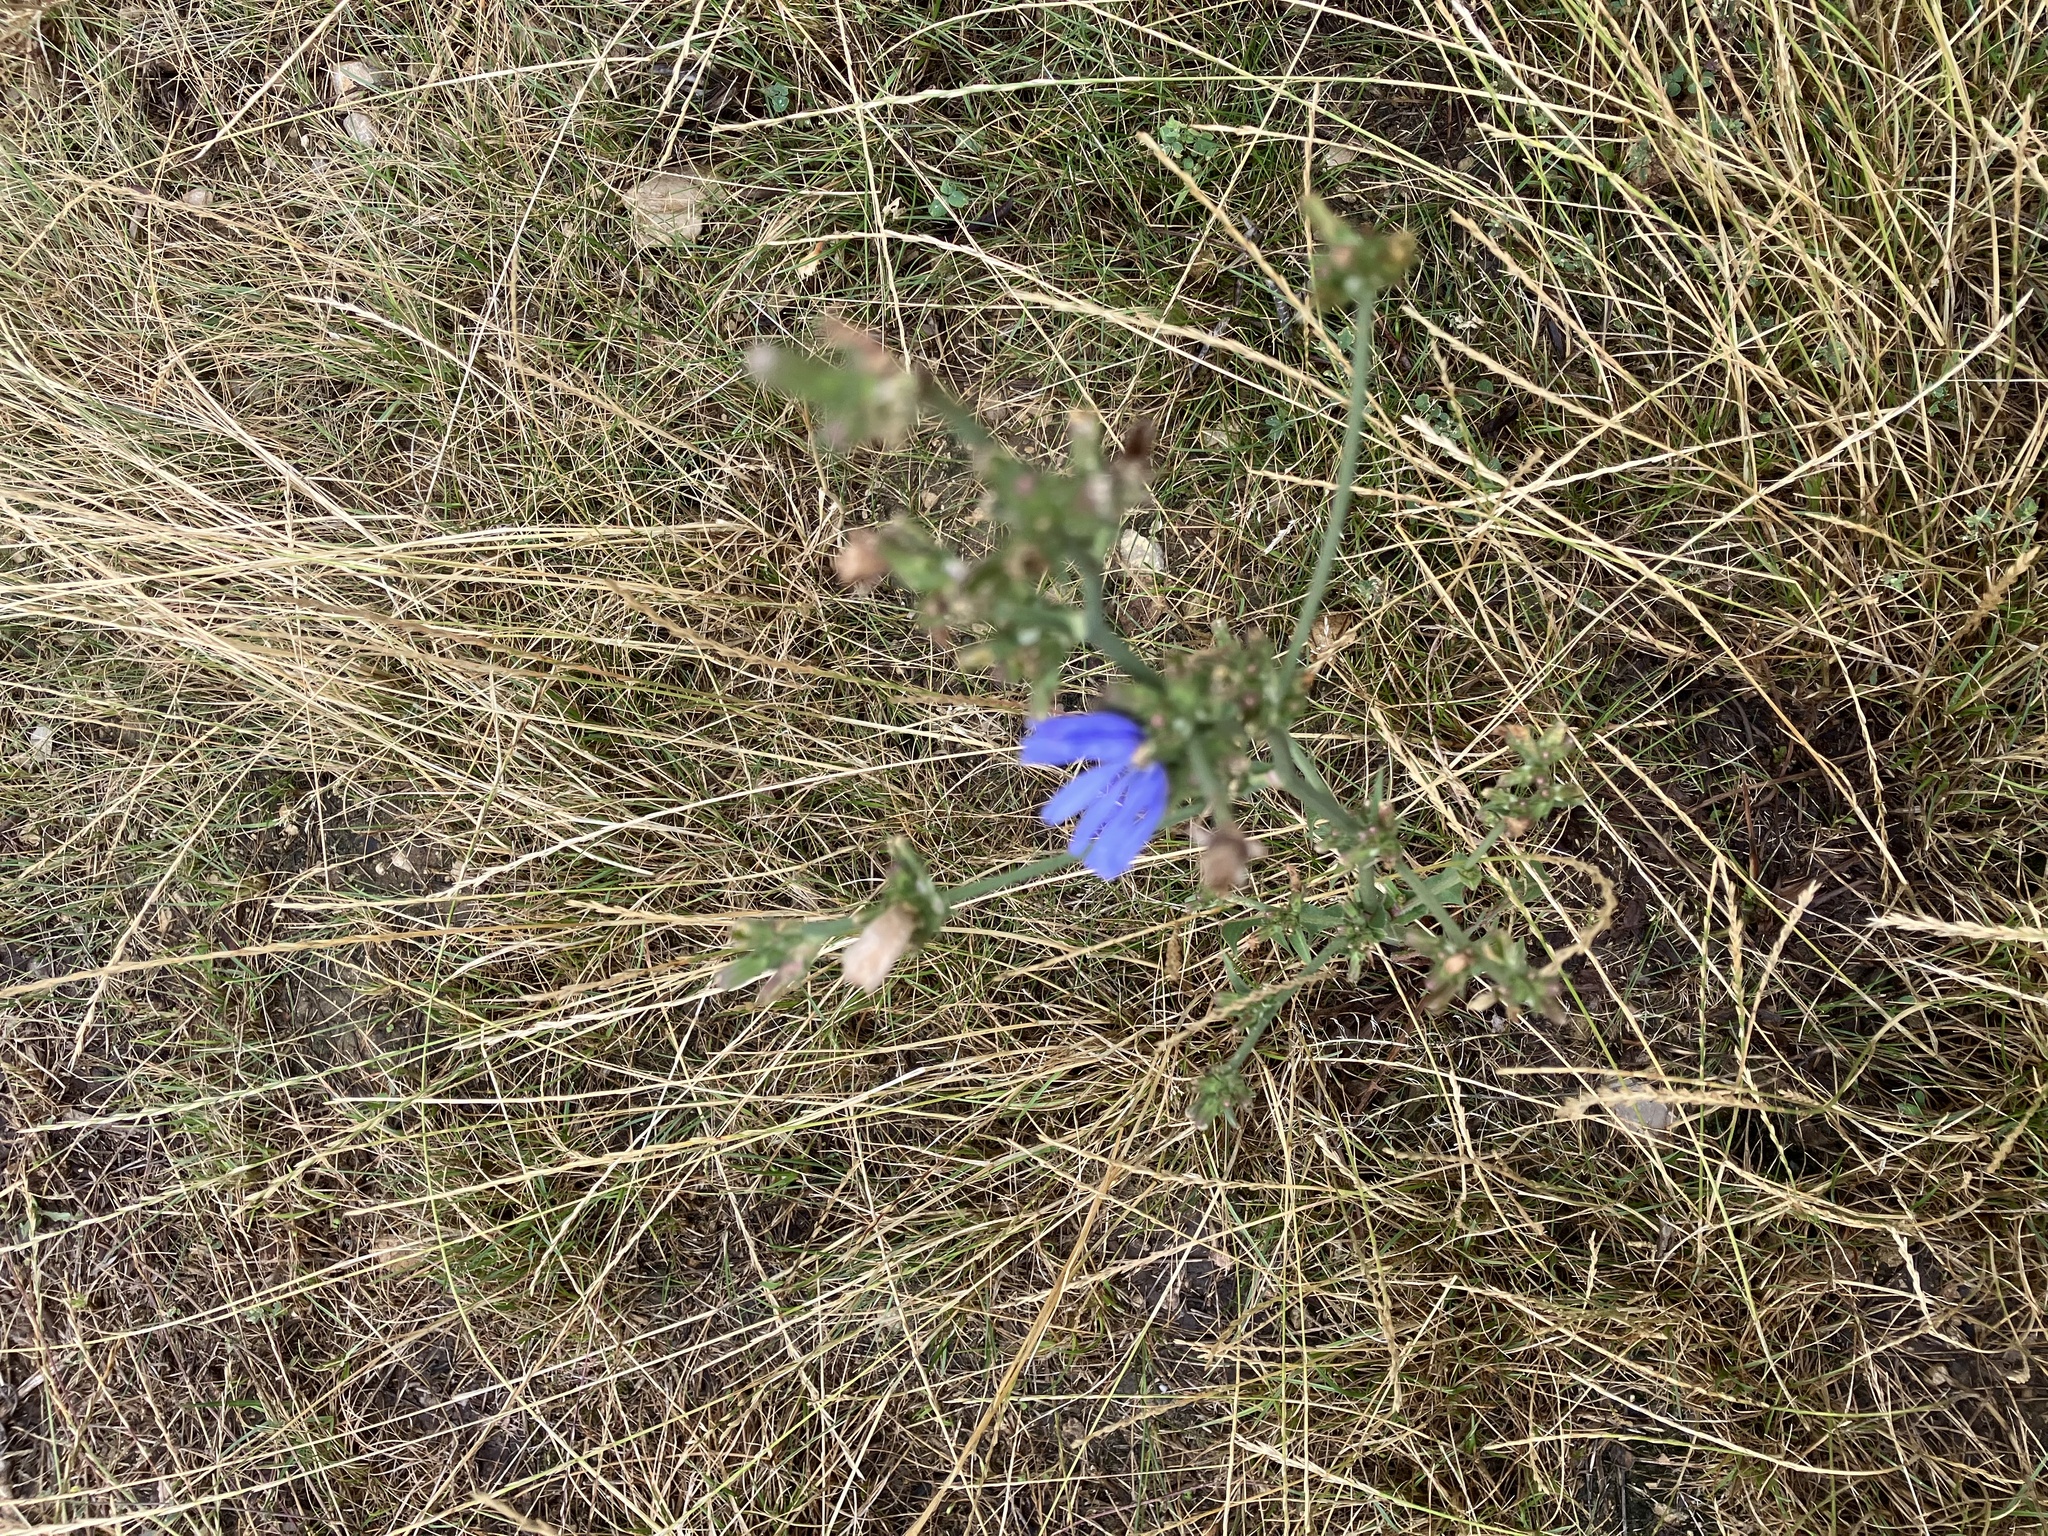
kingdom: Plantae
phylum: Tracheophyta
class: Magnoliopsida
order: Asterales
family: Asteraceae
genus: Cichorium
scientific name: Cichorium intybus
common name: Chicory
